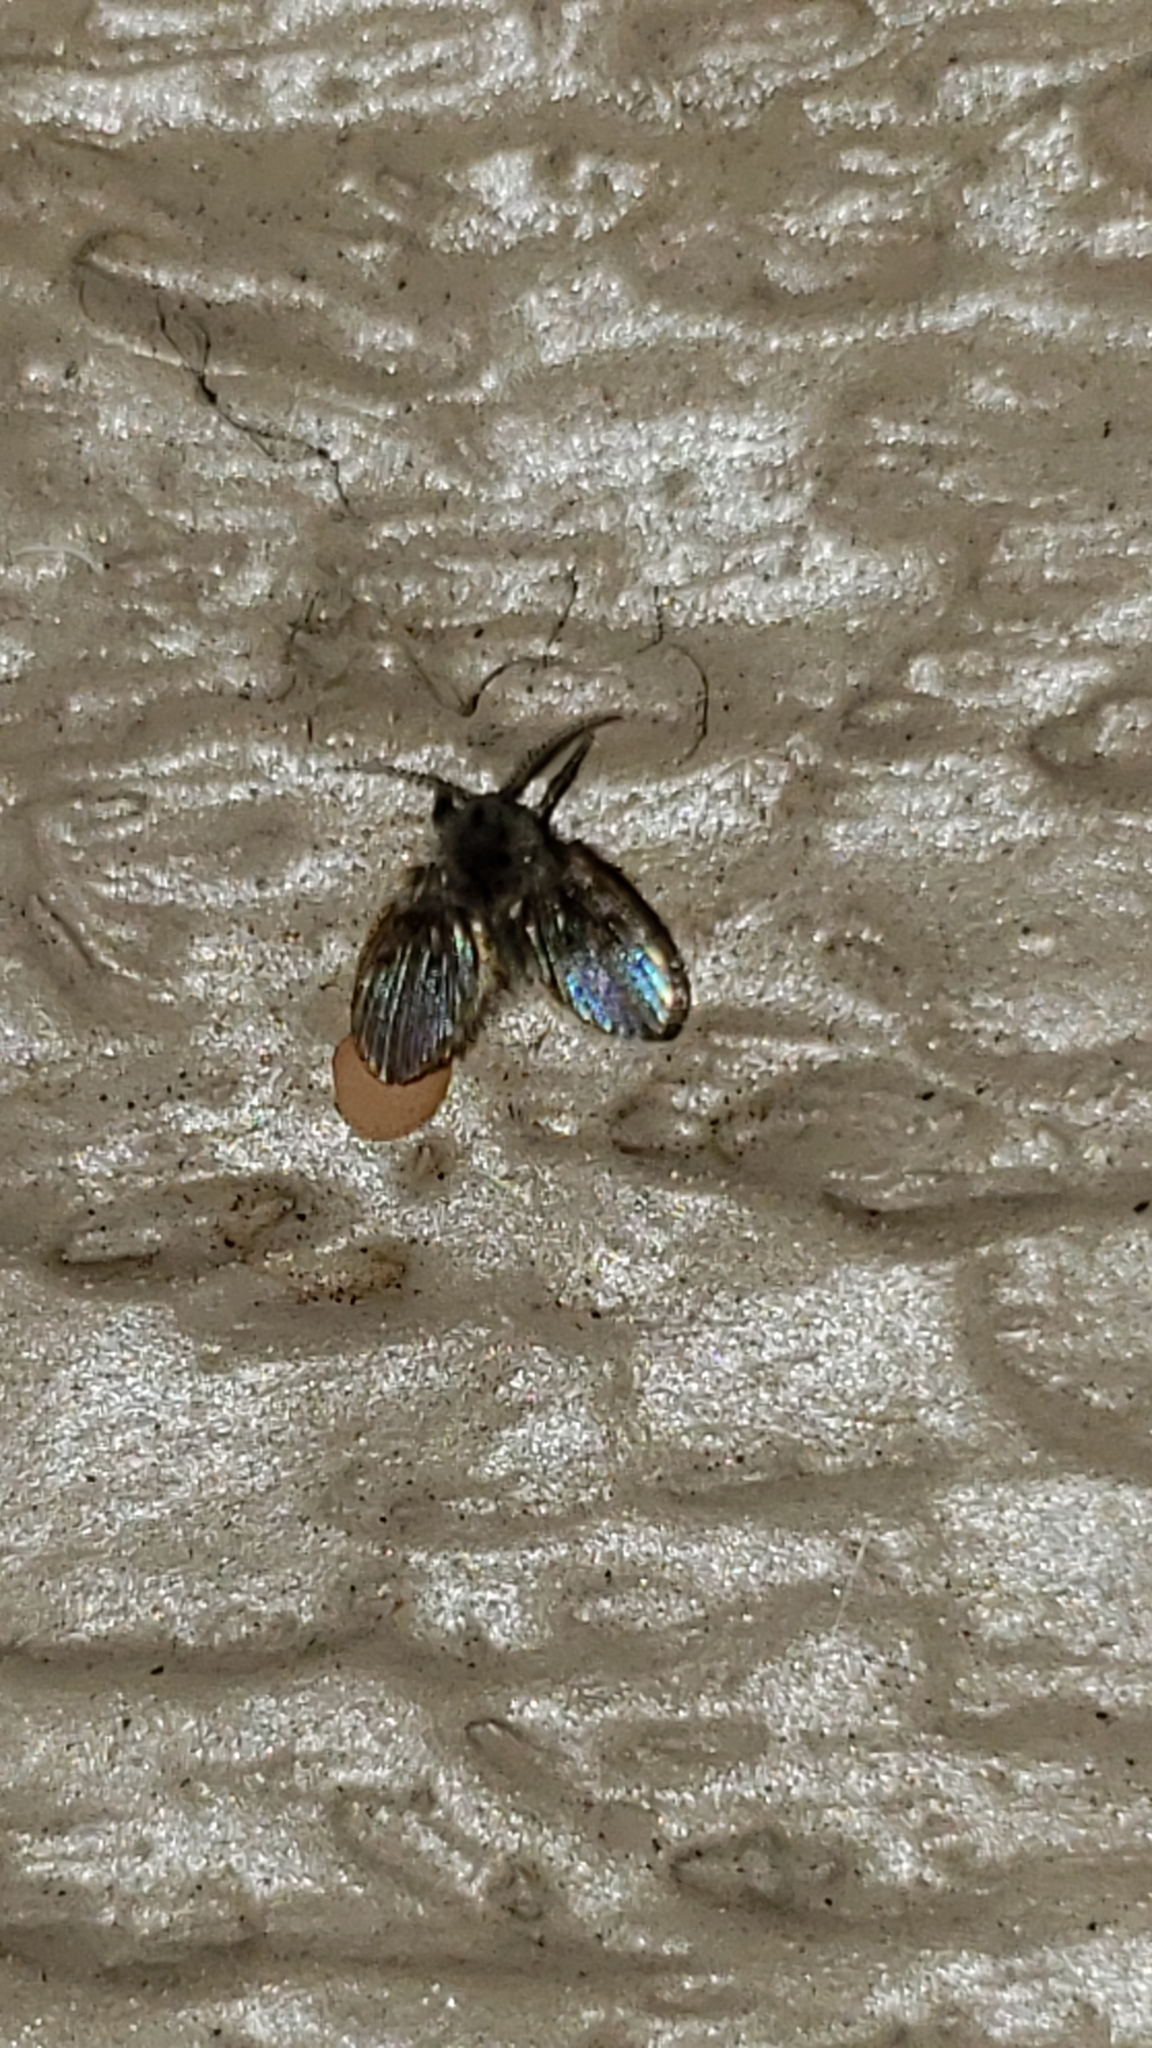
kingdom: Animalia
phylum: Arthropoda
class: Insecta
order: Diptera
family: Psychodidae
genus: Clogmia
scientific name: Clogmia albipunctatus
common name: White-spotted moth fly
